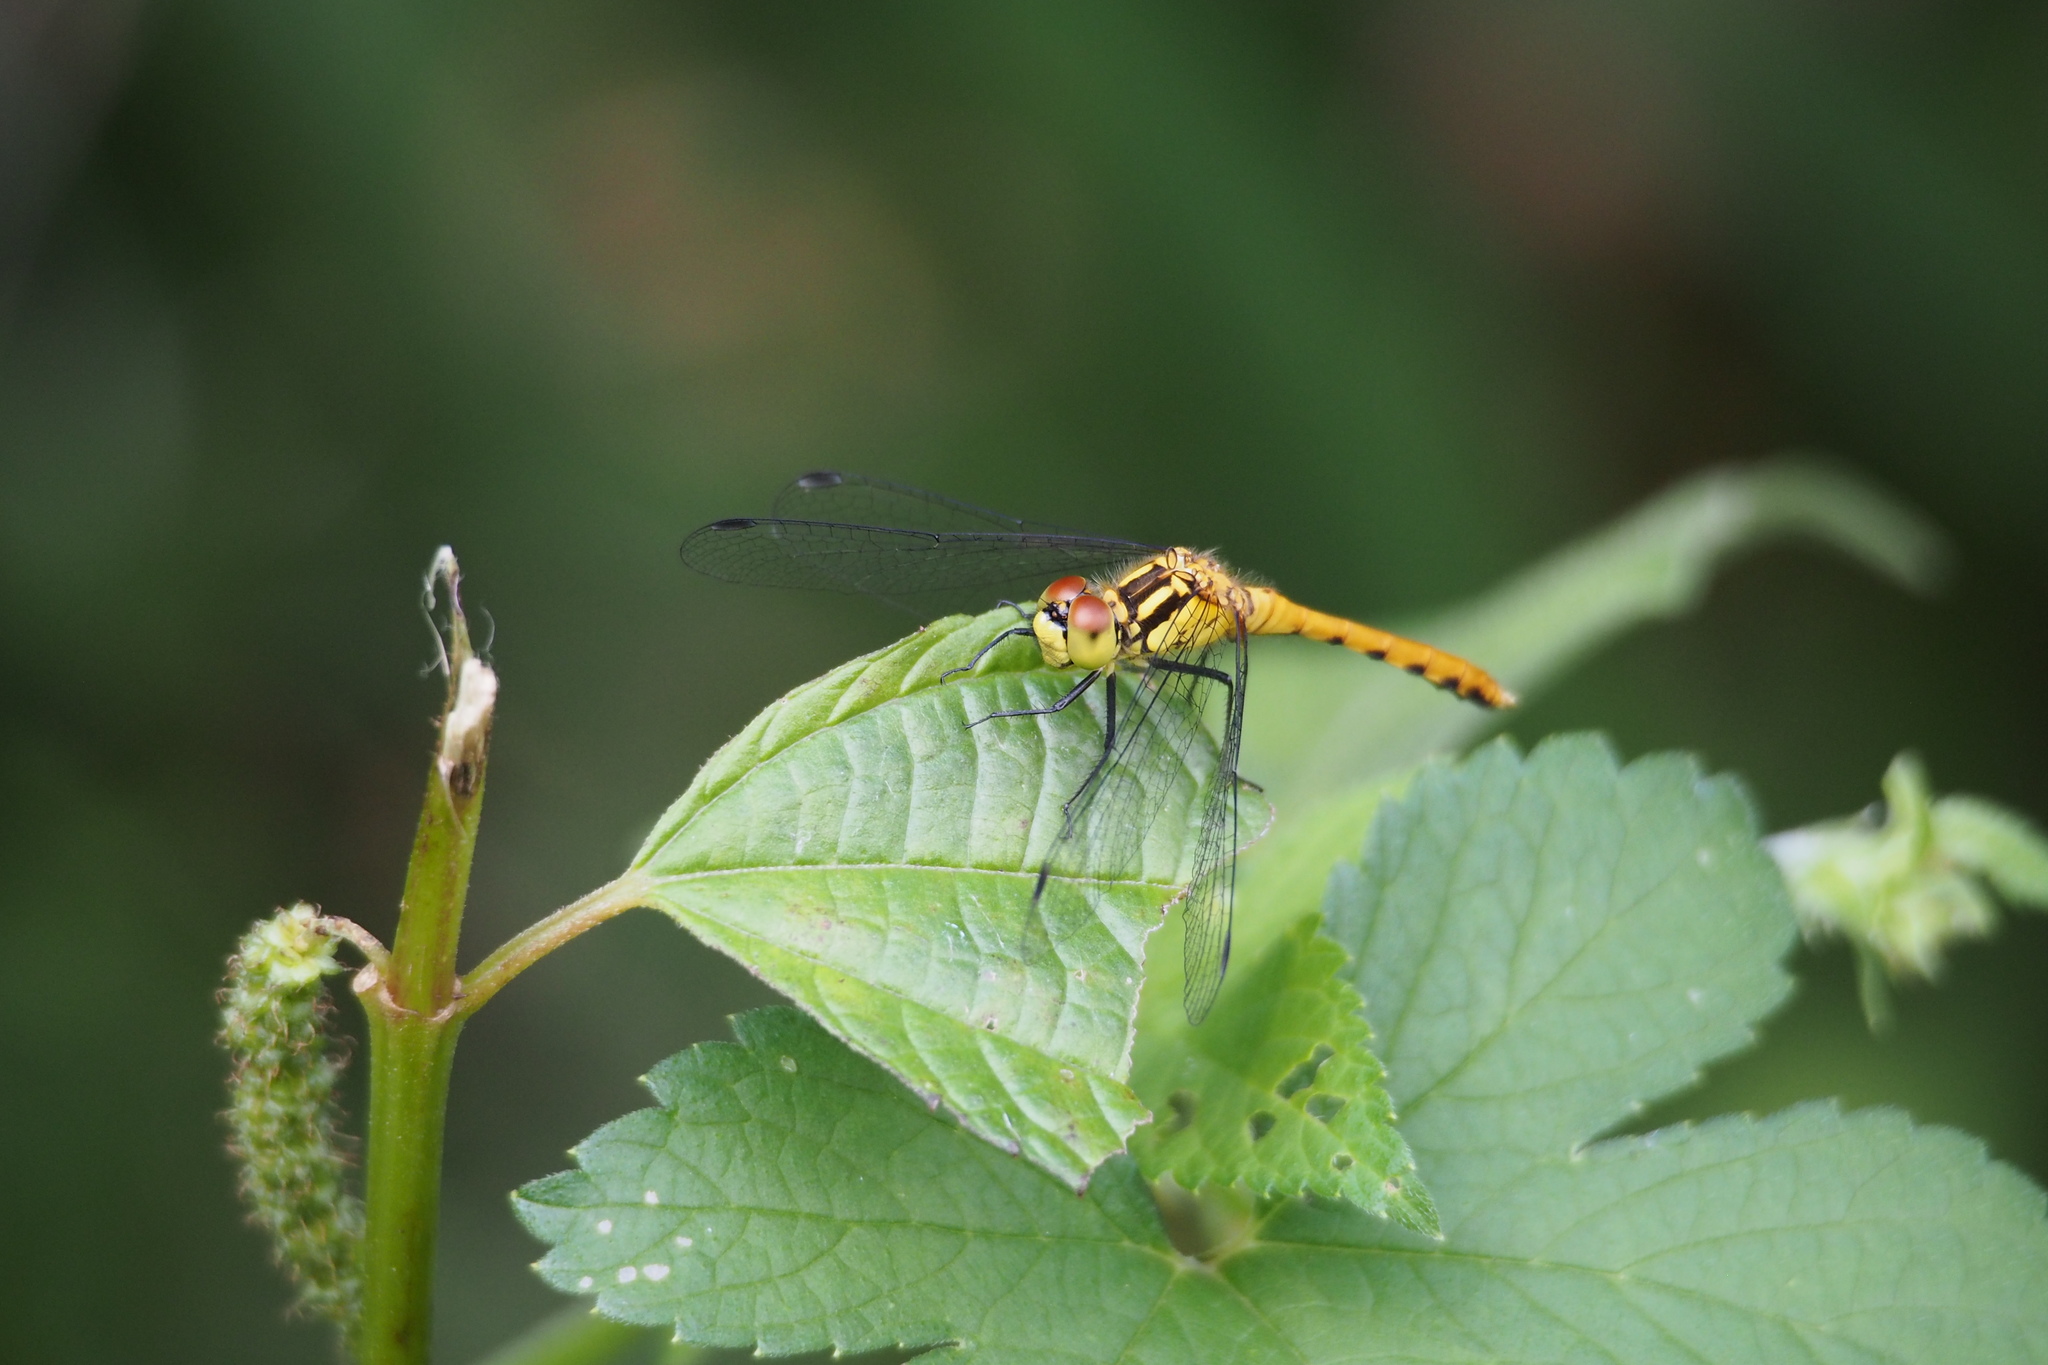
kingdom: Animalia
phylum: Arthropoda
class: Insecta
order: Odonata
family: Libellulidae
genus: Sympetrum
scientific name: Sympetrum parvulum
